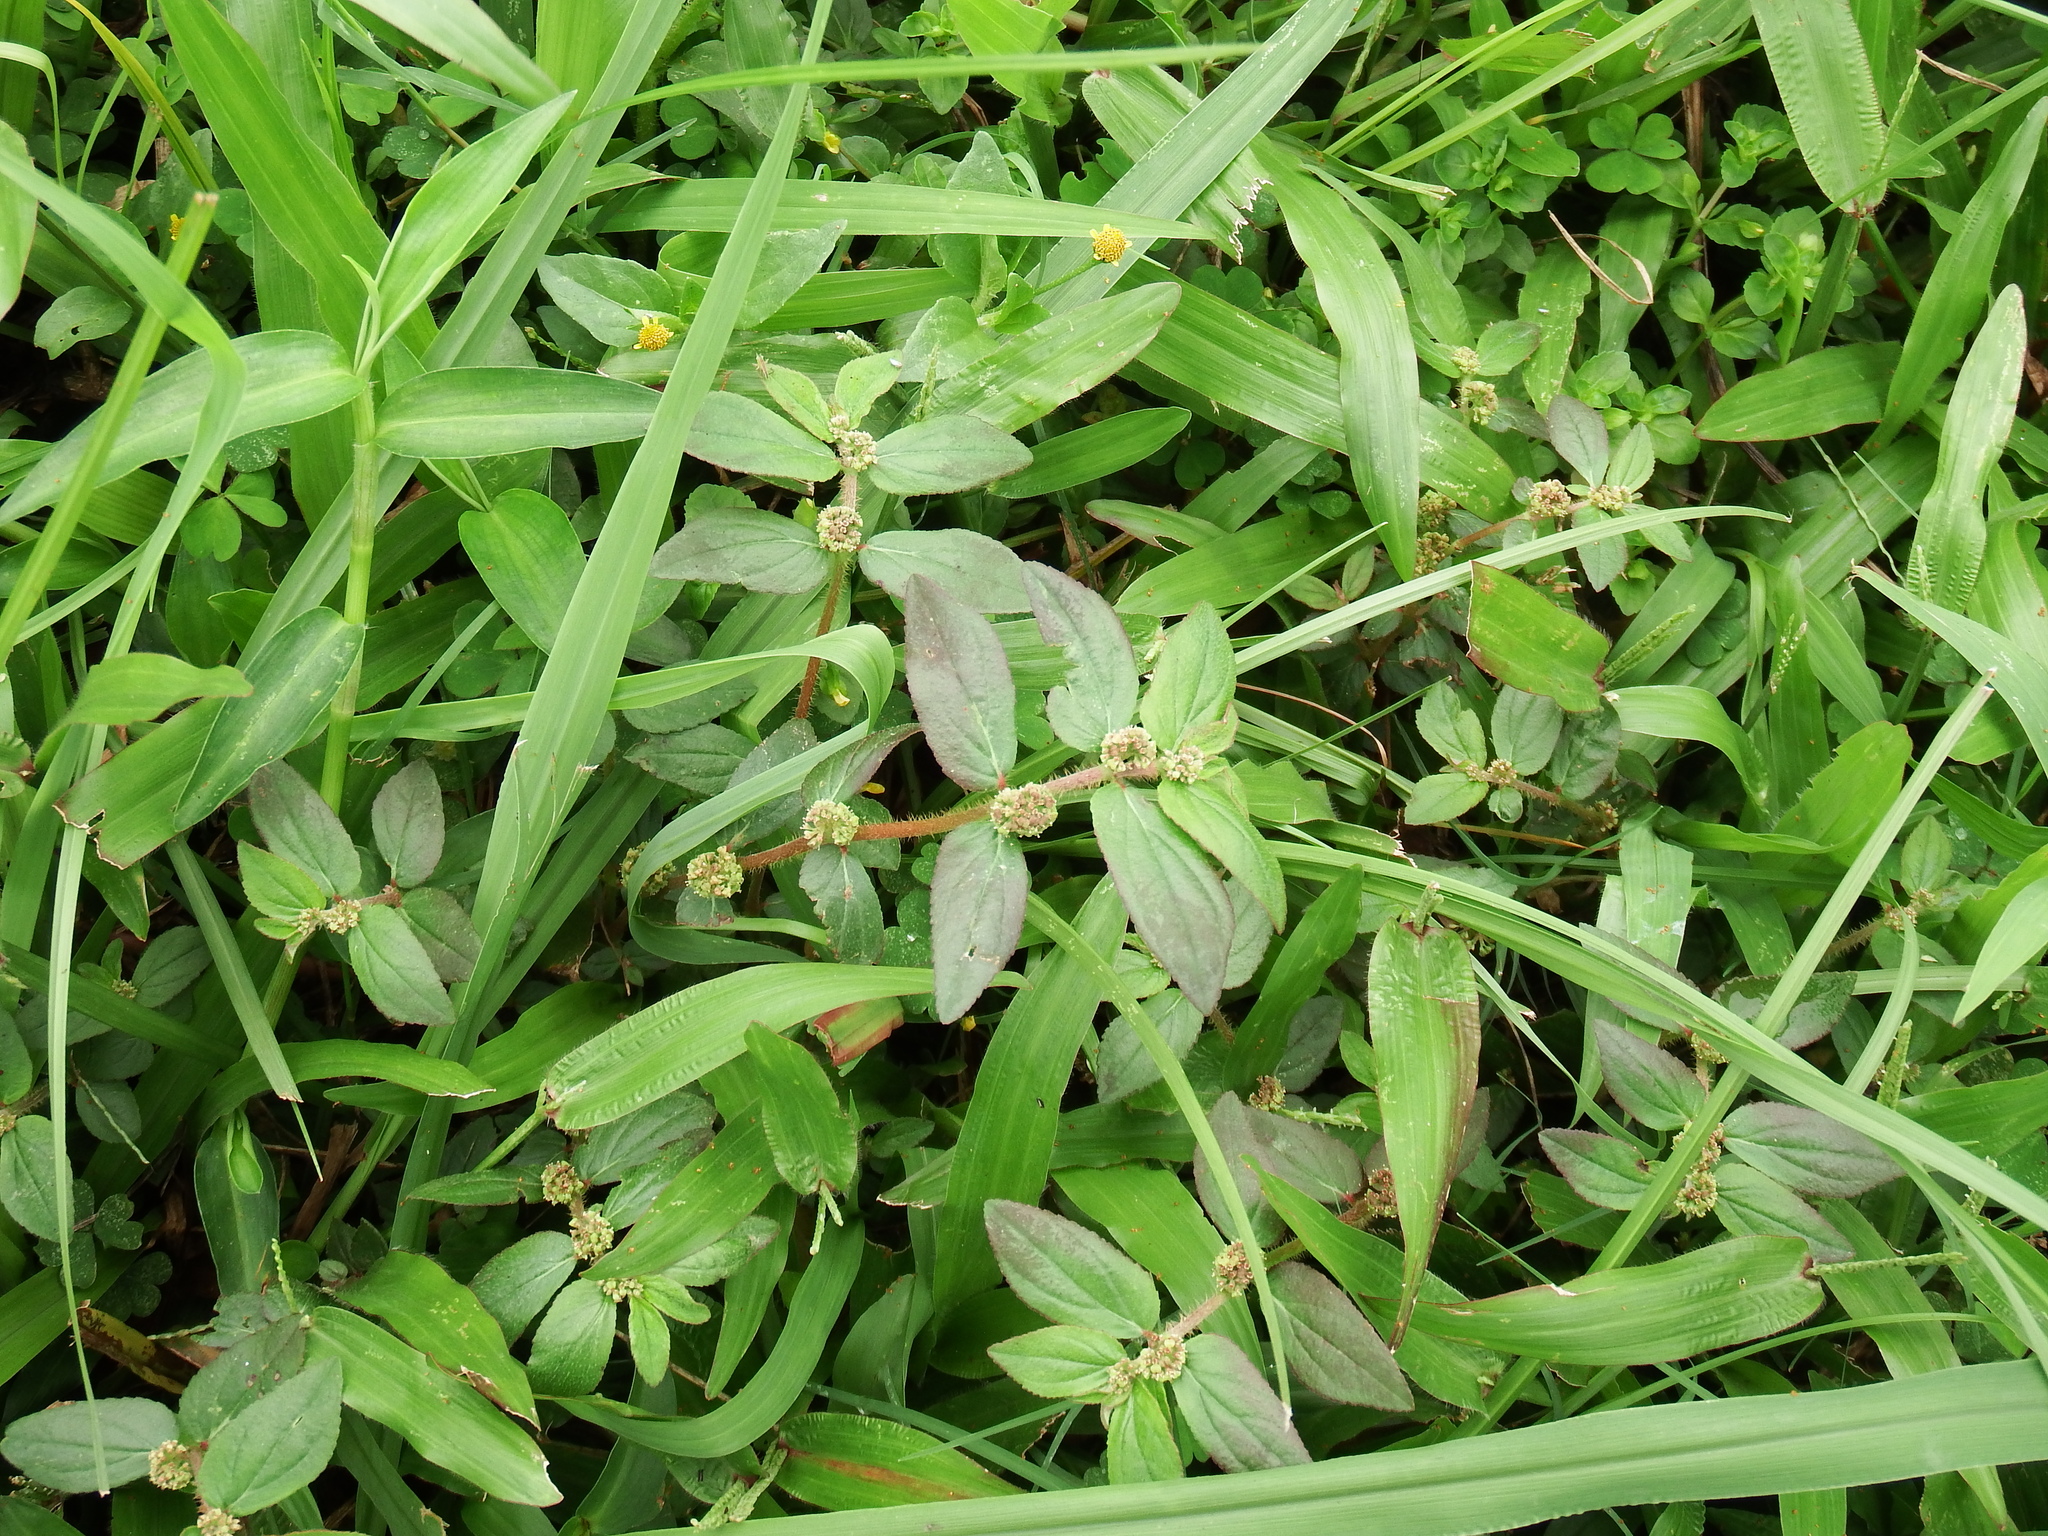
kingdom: Plantae
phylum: Tracheophyta
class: Magnoliopsida
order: Malpighiales
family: Euphorbiaceae
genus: Euphorbia
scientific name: Euphorbia hirta
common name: Pillpod sandmat
